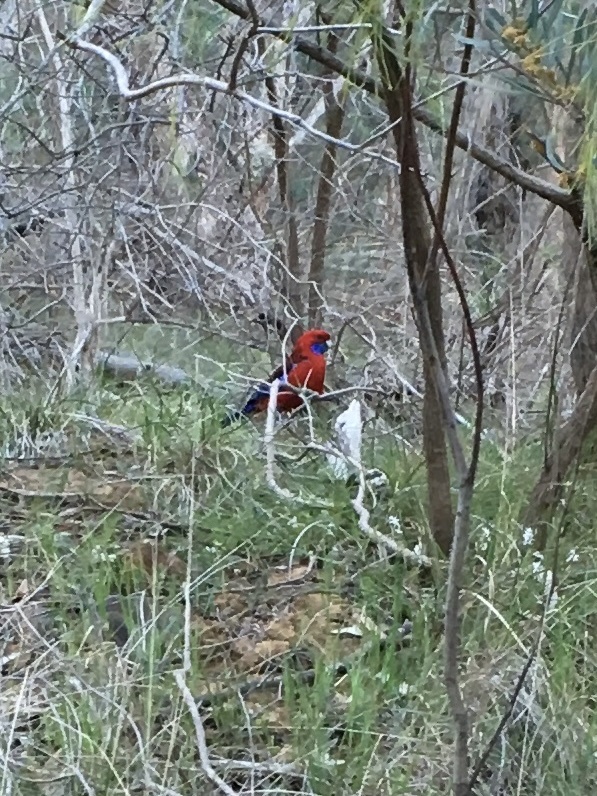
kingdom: Animalia
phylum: Chordata
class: Aves
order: Psittaciformes
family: Psittacidae
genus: Platycercus
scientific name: Platycercus elegans
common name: Crimson rosella
